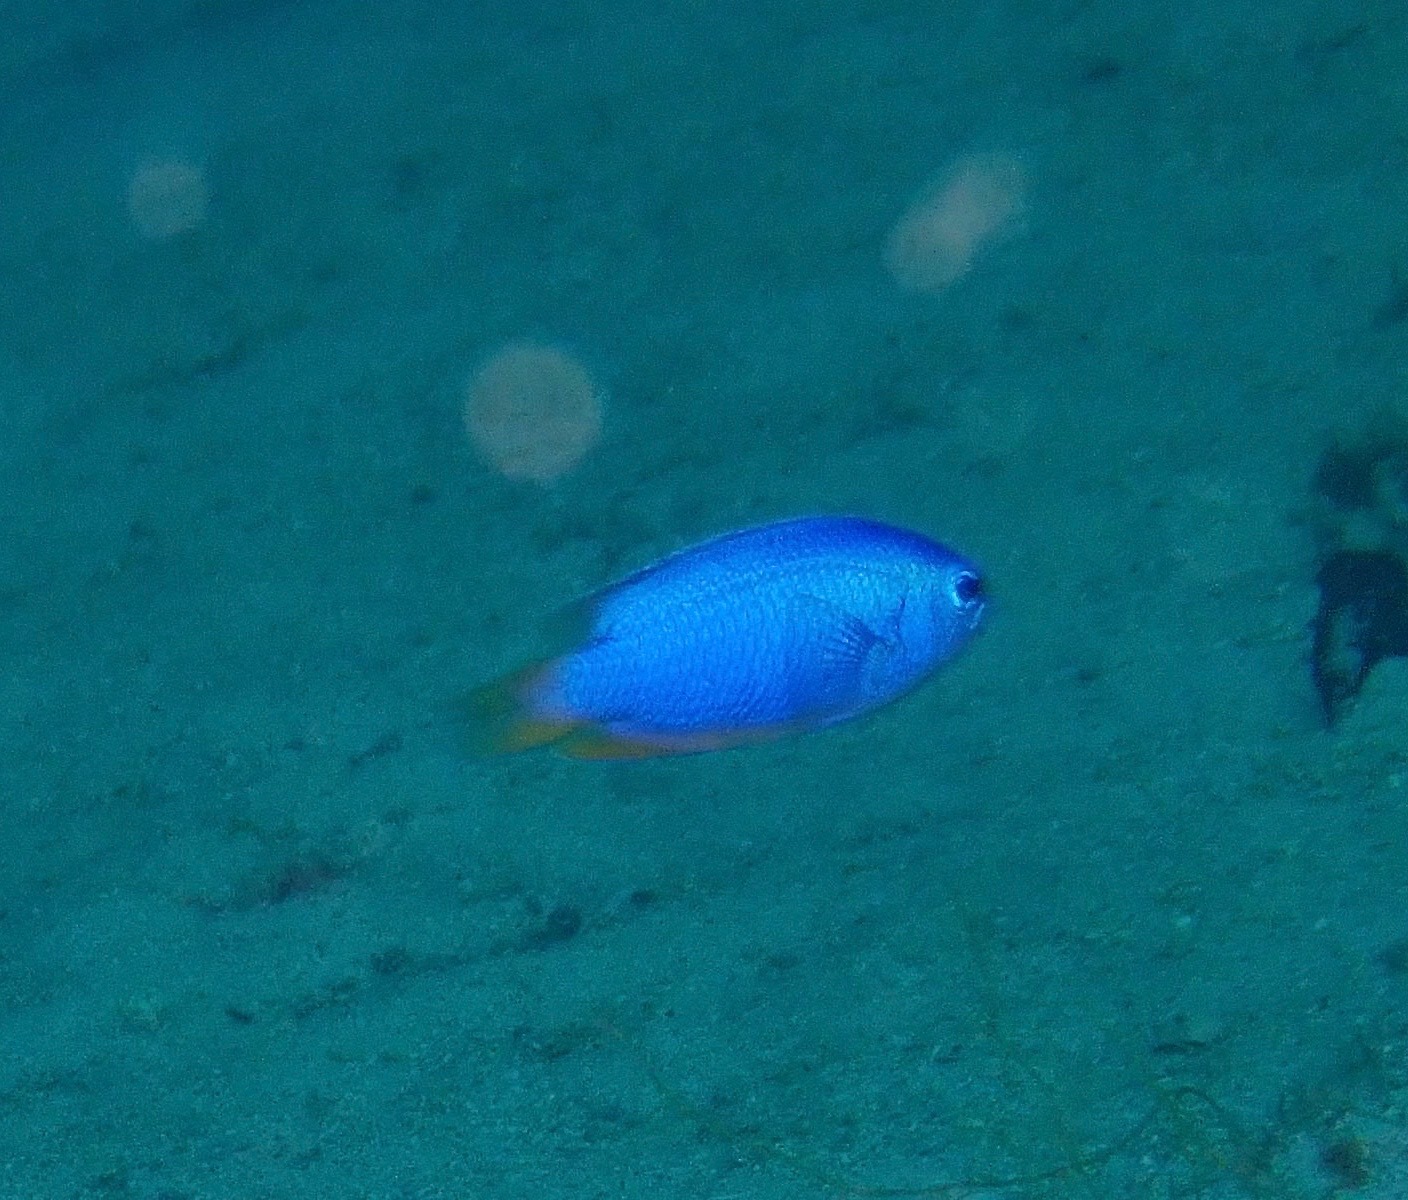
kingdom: Animalia
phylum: Chordata
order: Perciformes
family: Pomacentridae
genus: Pomacentrus
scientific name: Pomacentrus coelestis
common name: Neon damsel
